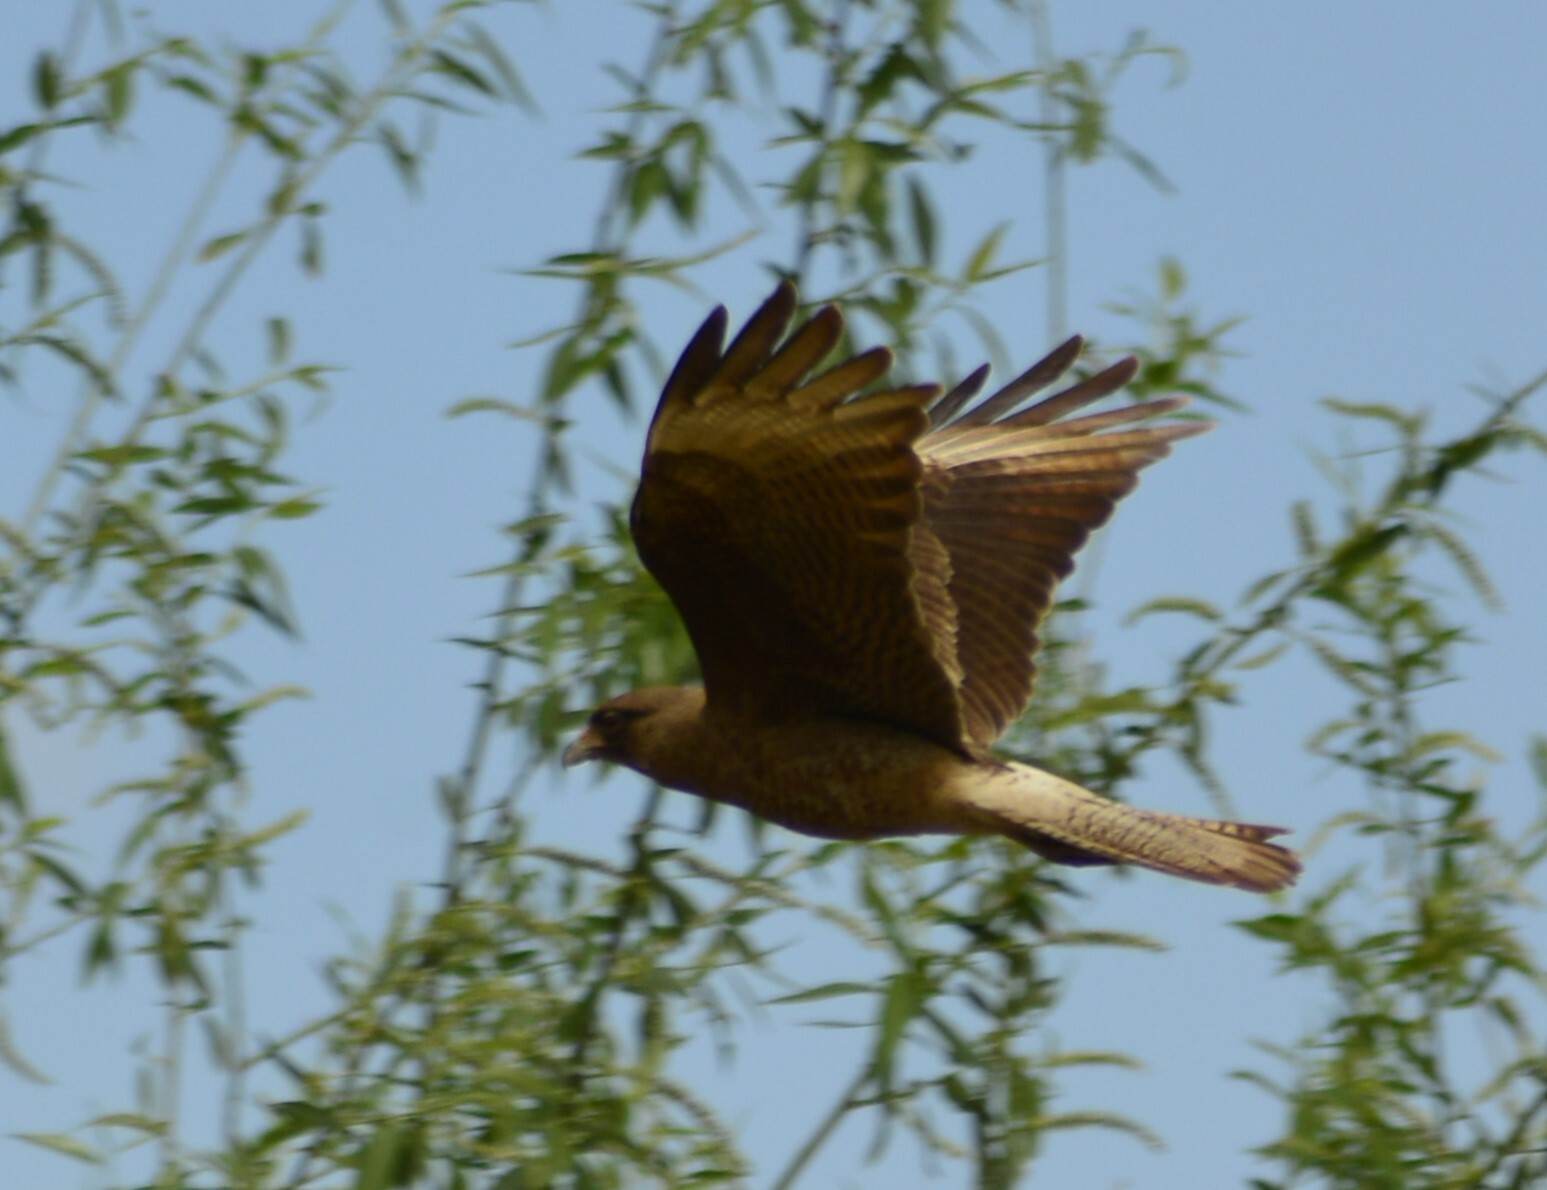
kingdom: Animalia
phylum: Chordata
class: Aves
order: Falconiformes
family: Falconidae
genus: Daptrius
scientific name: Daptrius
